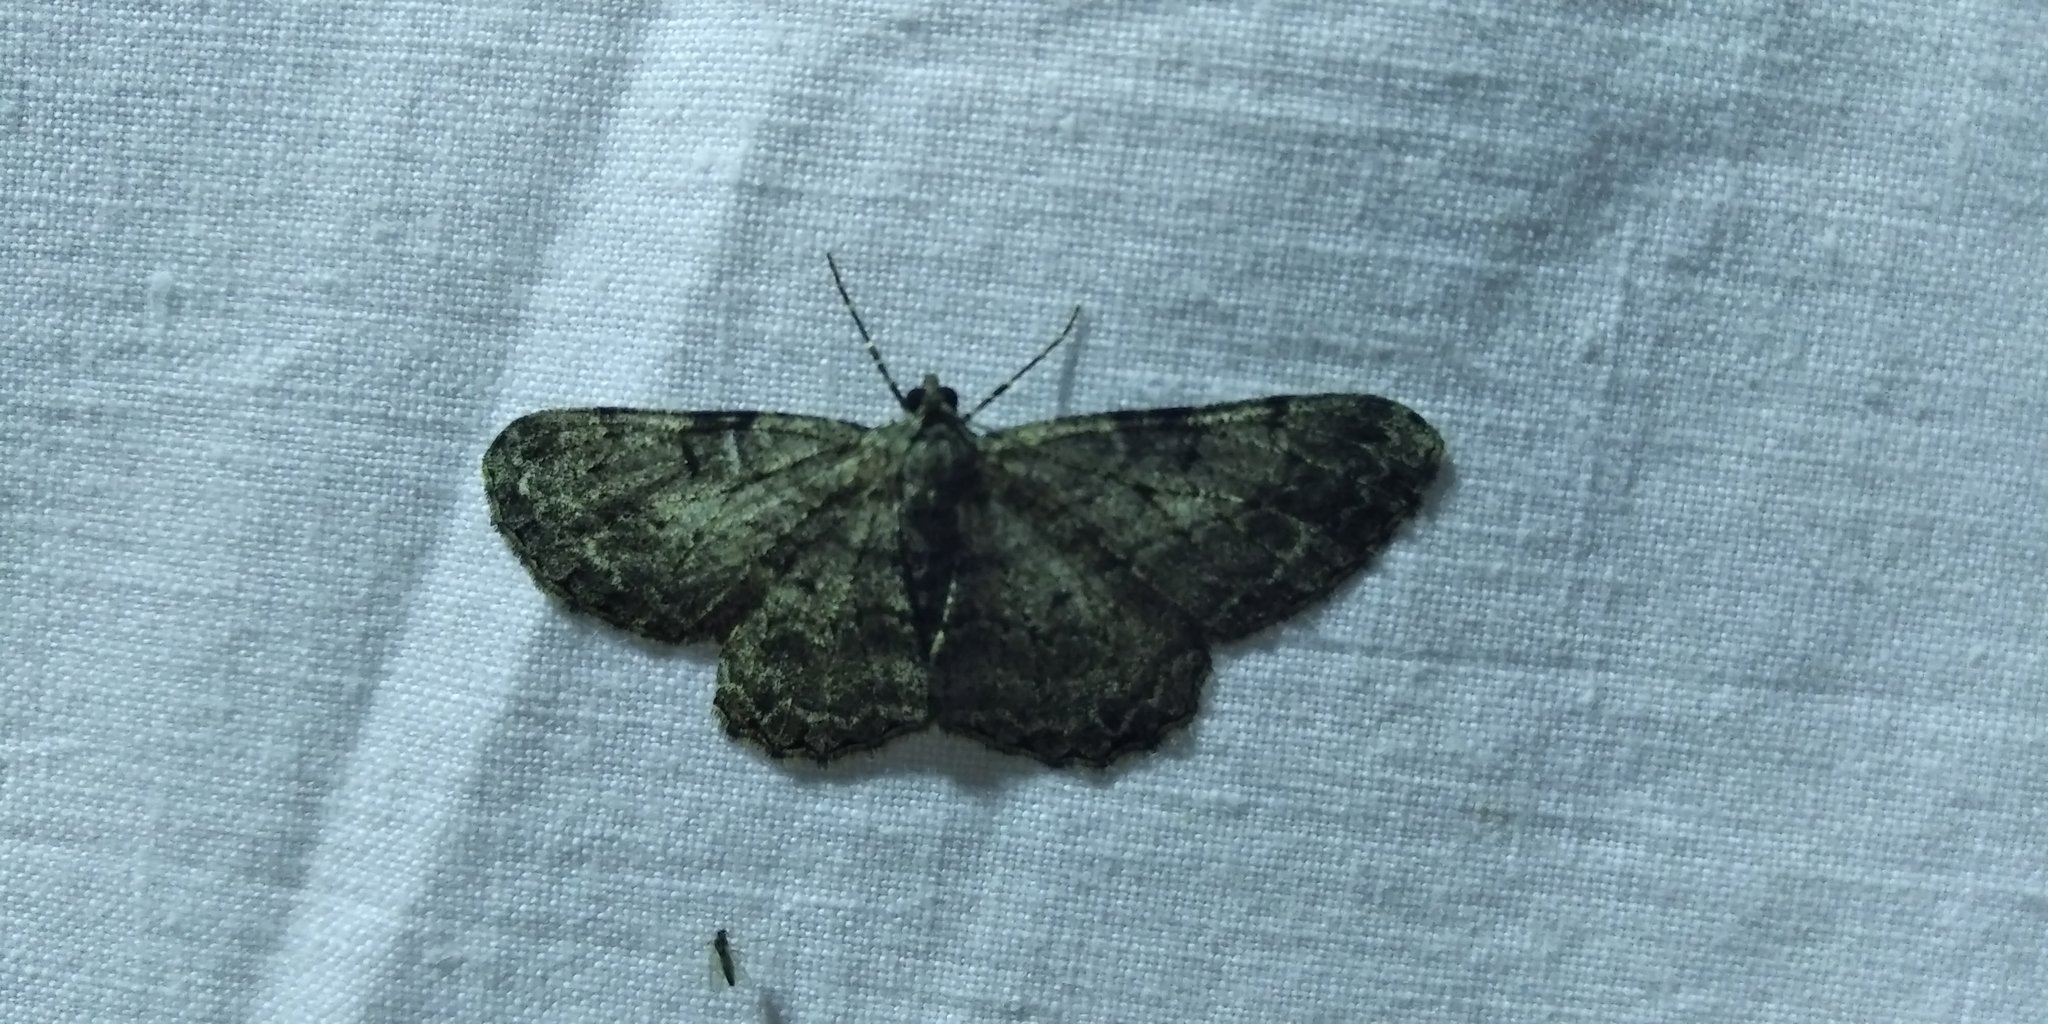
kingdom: Animalia
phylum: Arthropoda
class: Insecta
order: Lepidoptera
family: Geometridae
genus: Peribatodes
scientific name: Peribatodes rhomboidaria
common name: Willow beauty
